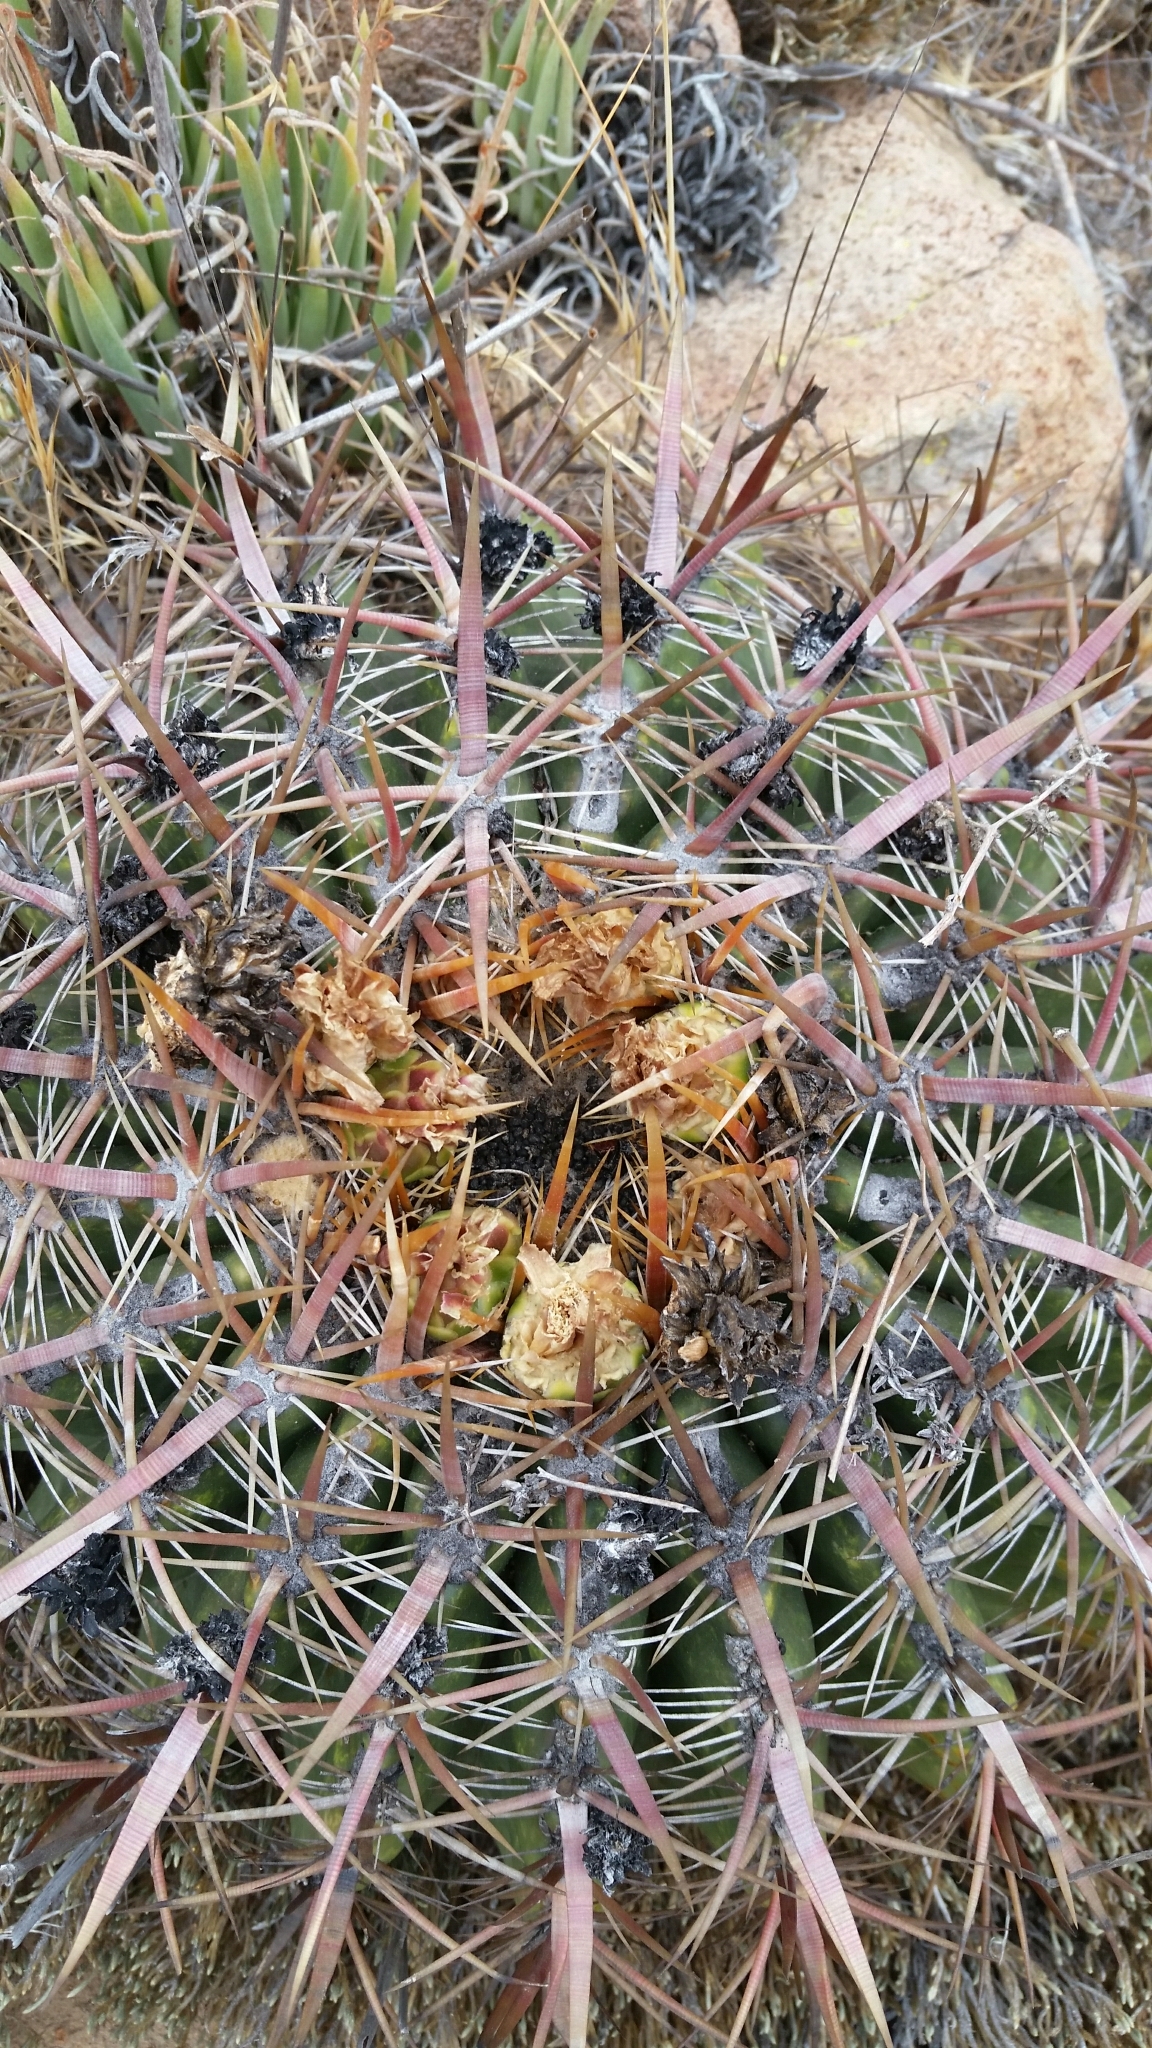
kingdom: Plantae
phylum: Tracheophyta
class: Magnoliopsida
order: Caryophyllales
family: Cactaceae
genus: Ferocactus
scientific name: Ferocactus viridescens
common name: San diego barrel cactus
